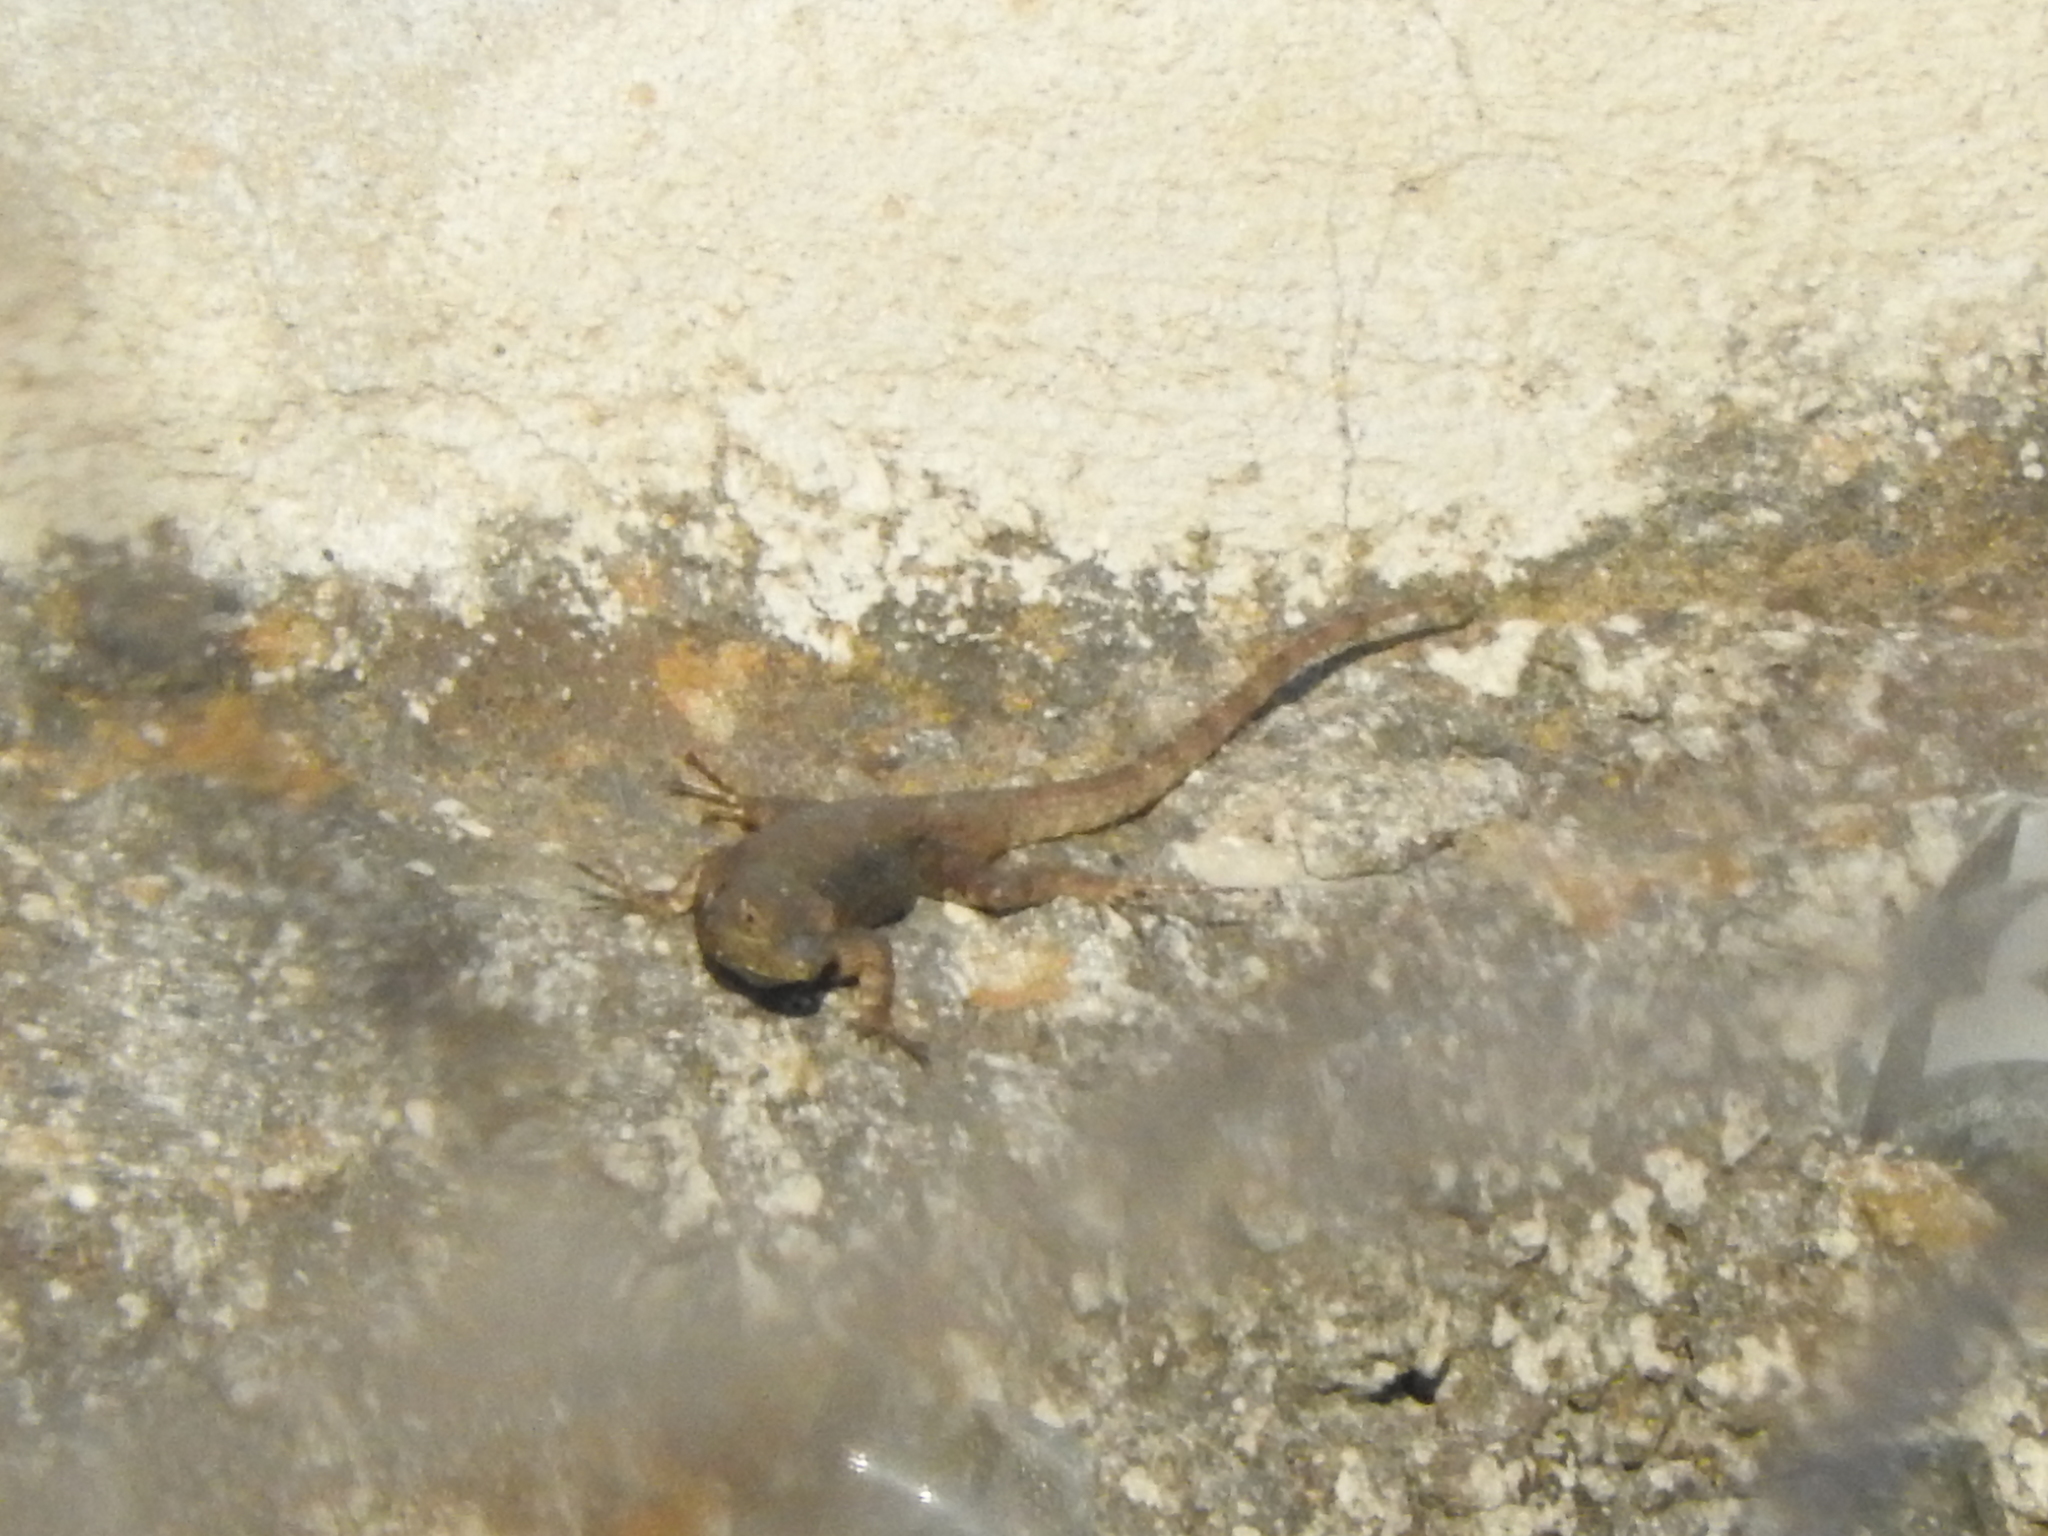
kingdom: Animalia
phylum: Chordata
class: Squamata
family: Phrynosomatidae
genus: Sceloporus
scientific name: Sceloporus grammicus
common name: Mesquite lizard
